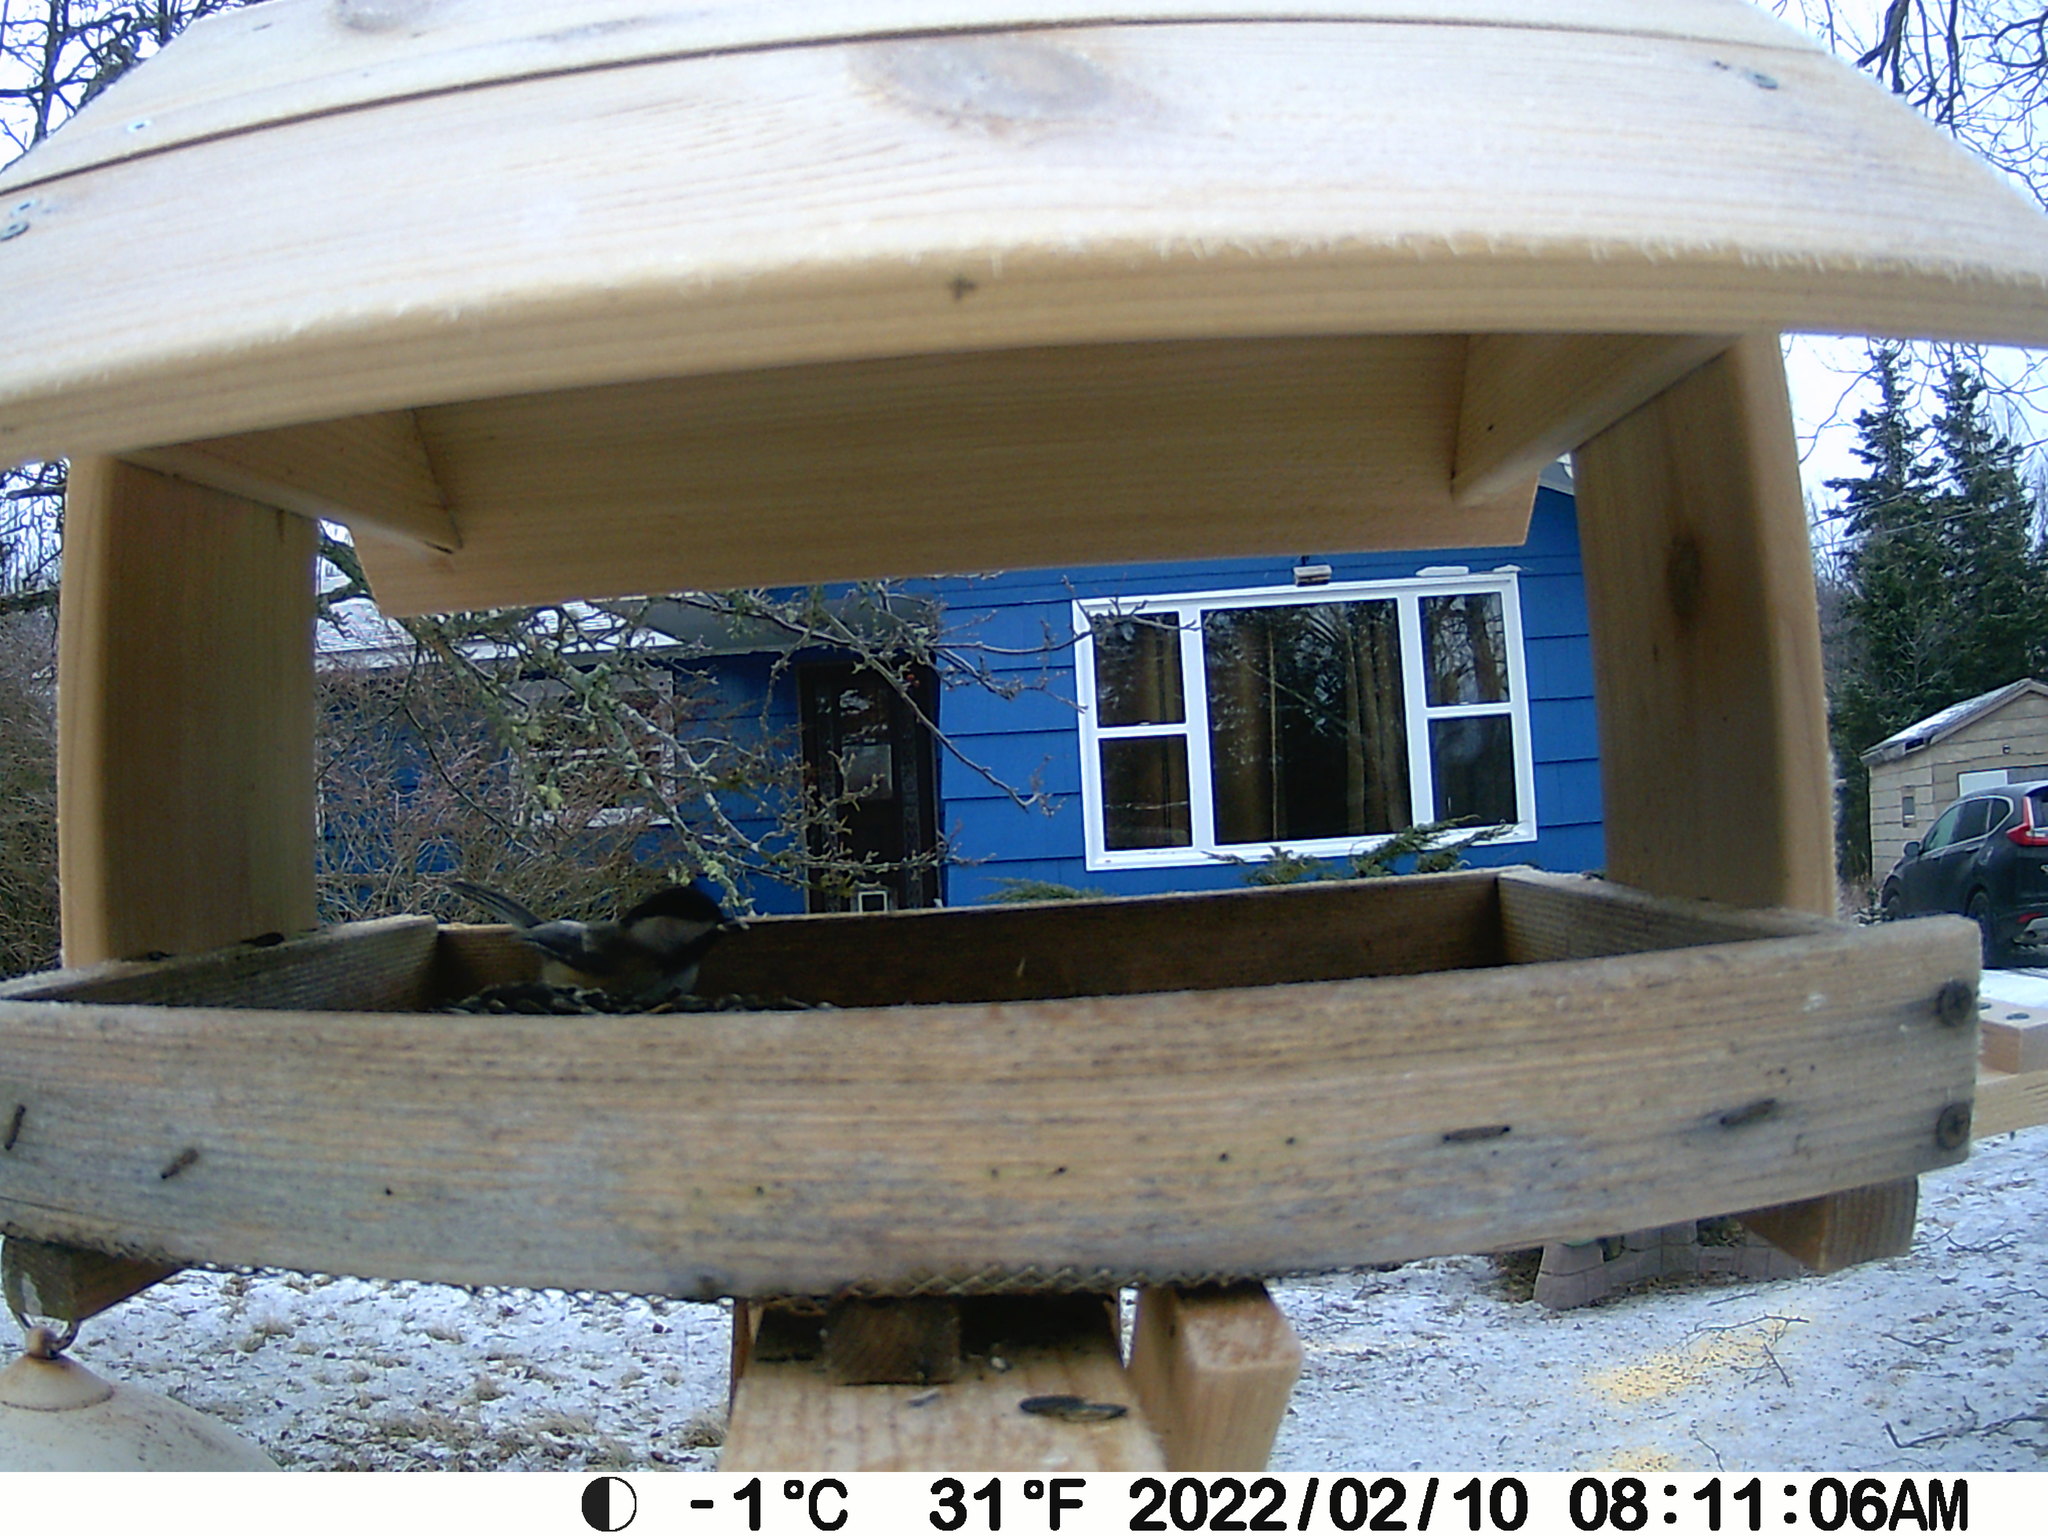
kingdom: Animalia
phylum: Chordata
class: Aves
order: Passeriformes
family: Paridae
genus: Poecile
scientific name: Poecile atricapillus
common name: Black-capped chickadee
